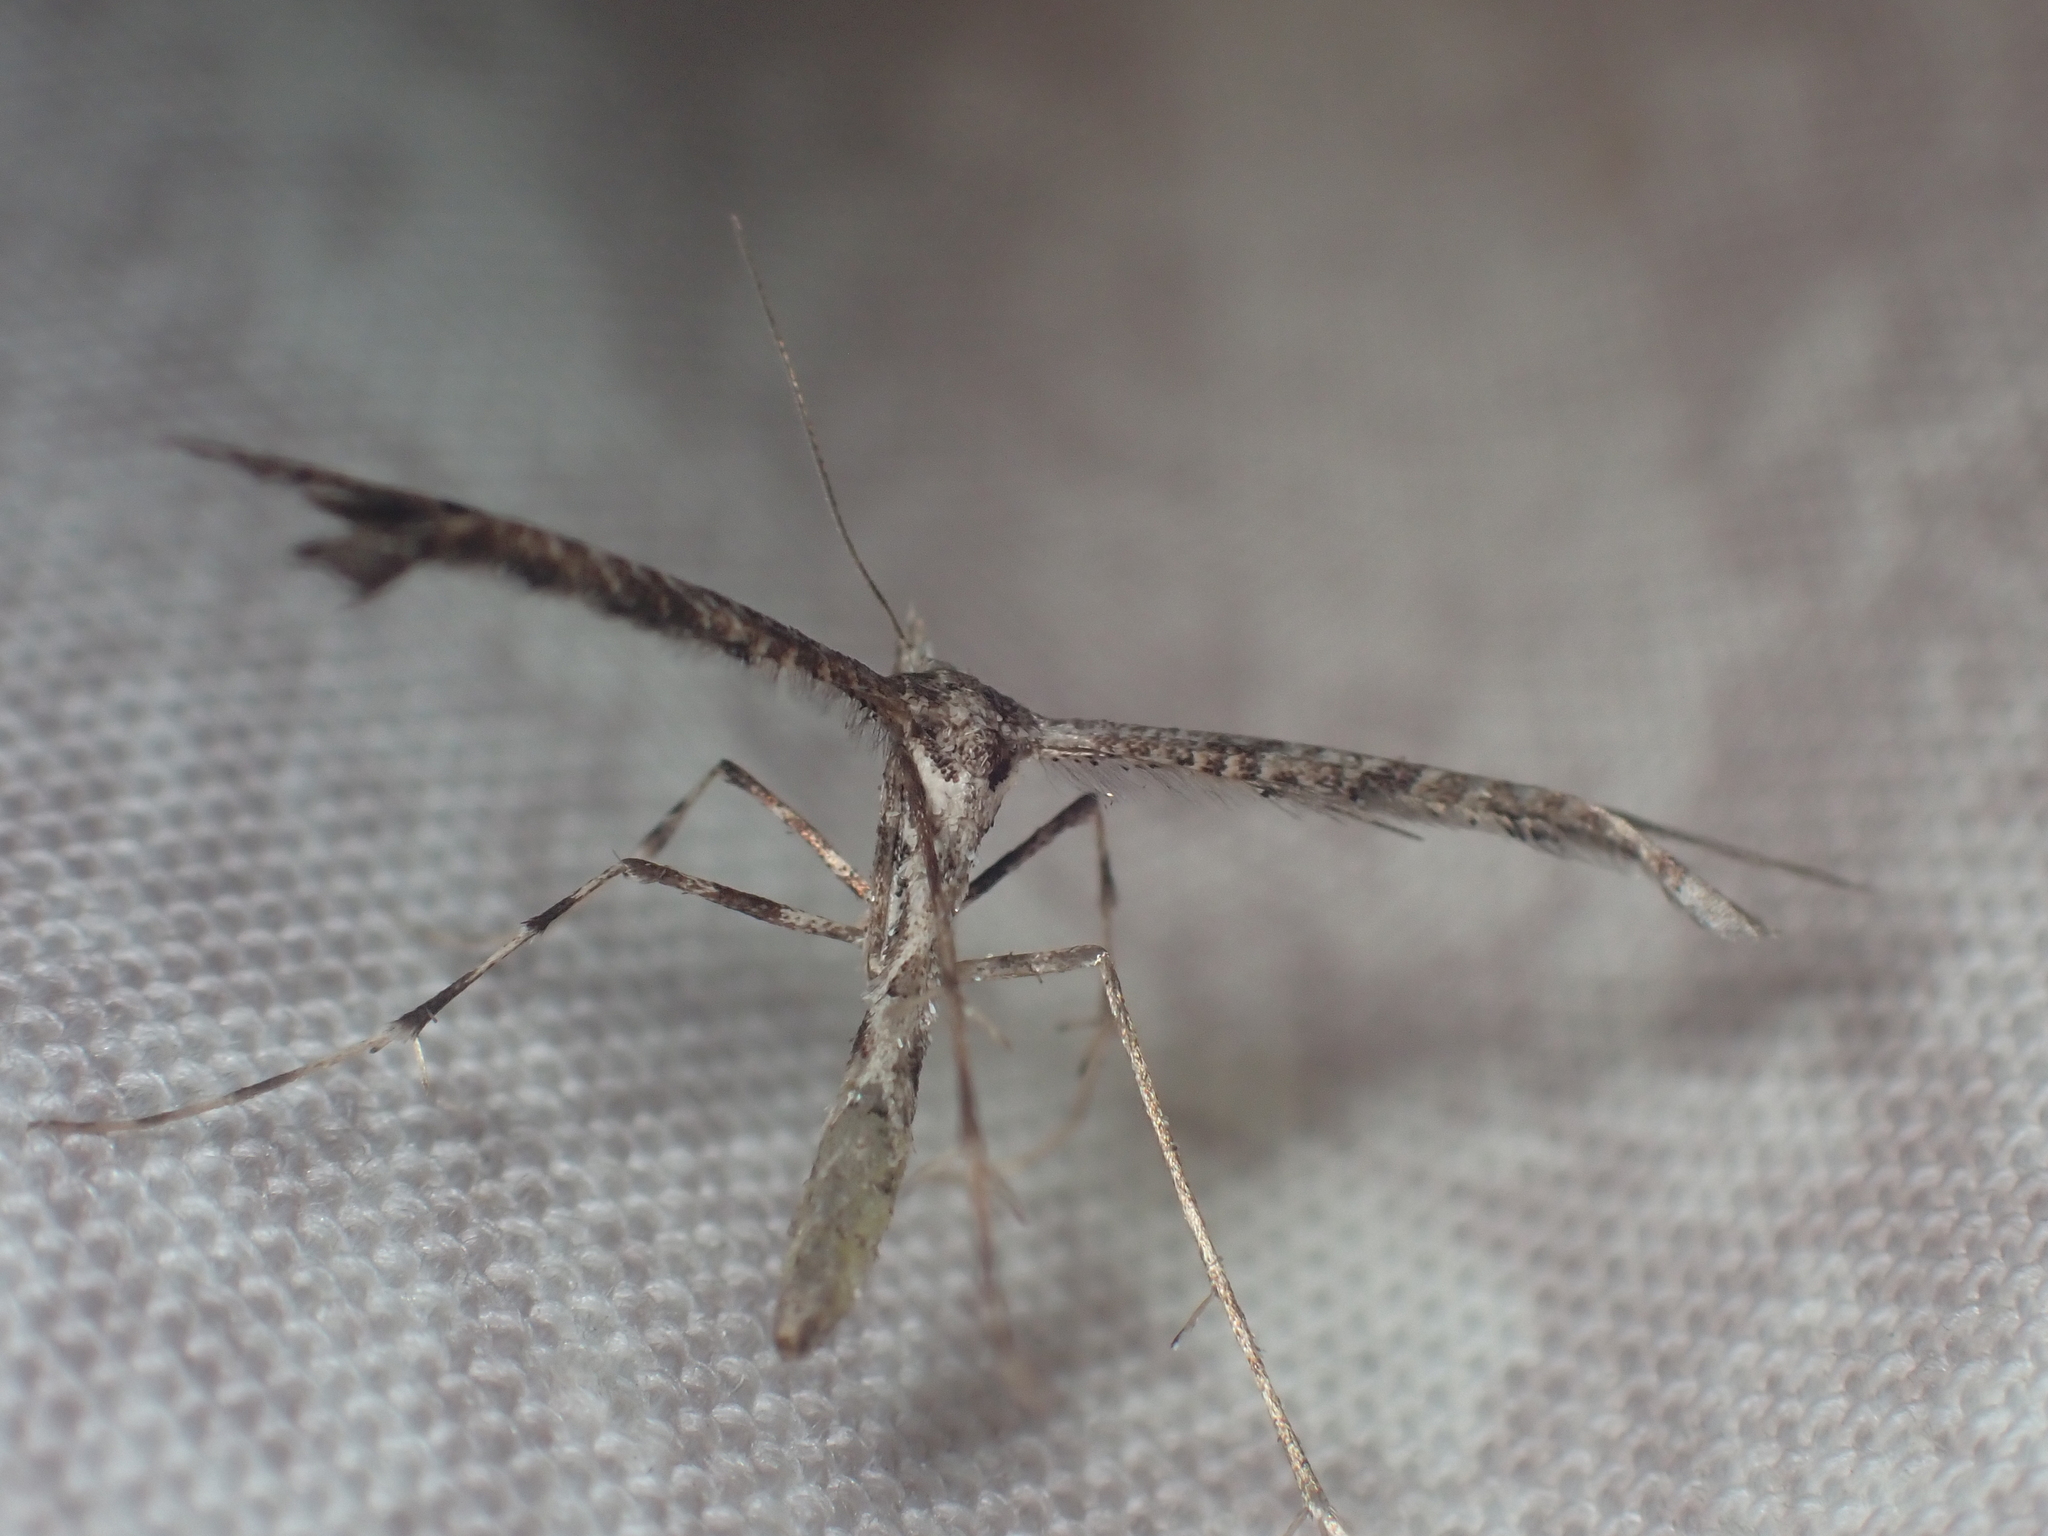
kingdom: Animalia
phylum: Arthropoda
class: Insecta
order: Lepidoptera
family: Pterophoridae
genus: Amblyptilia
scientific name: Amblyptilia repletalis
